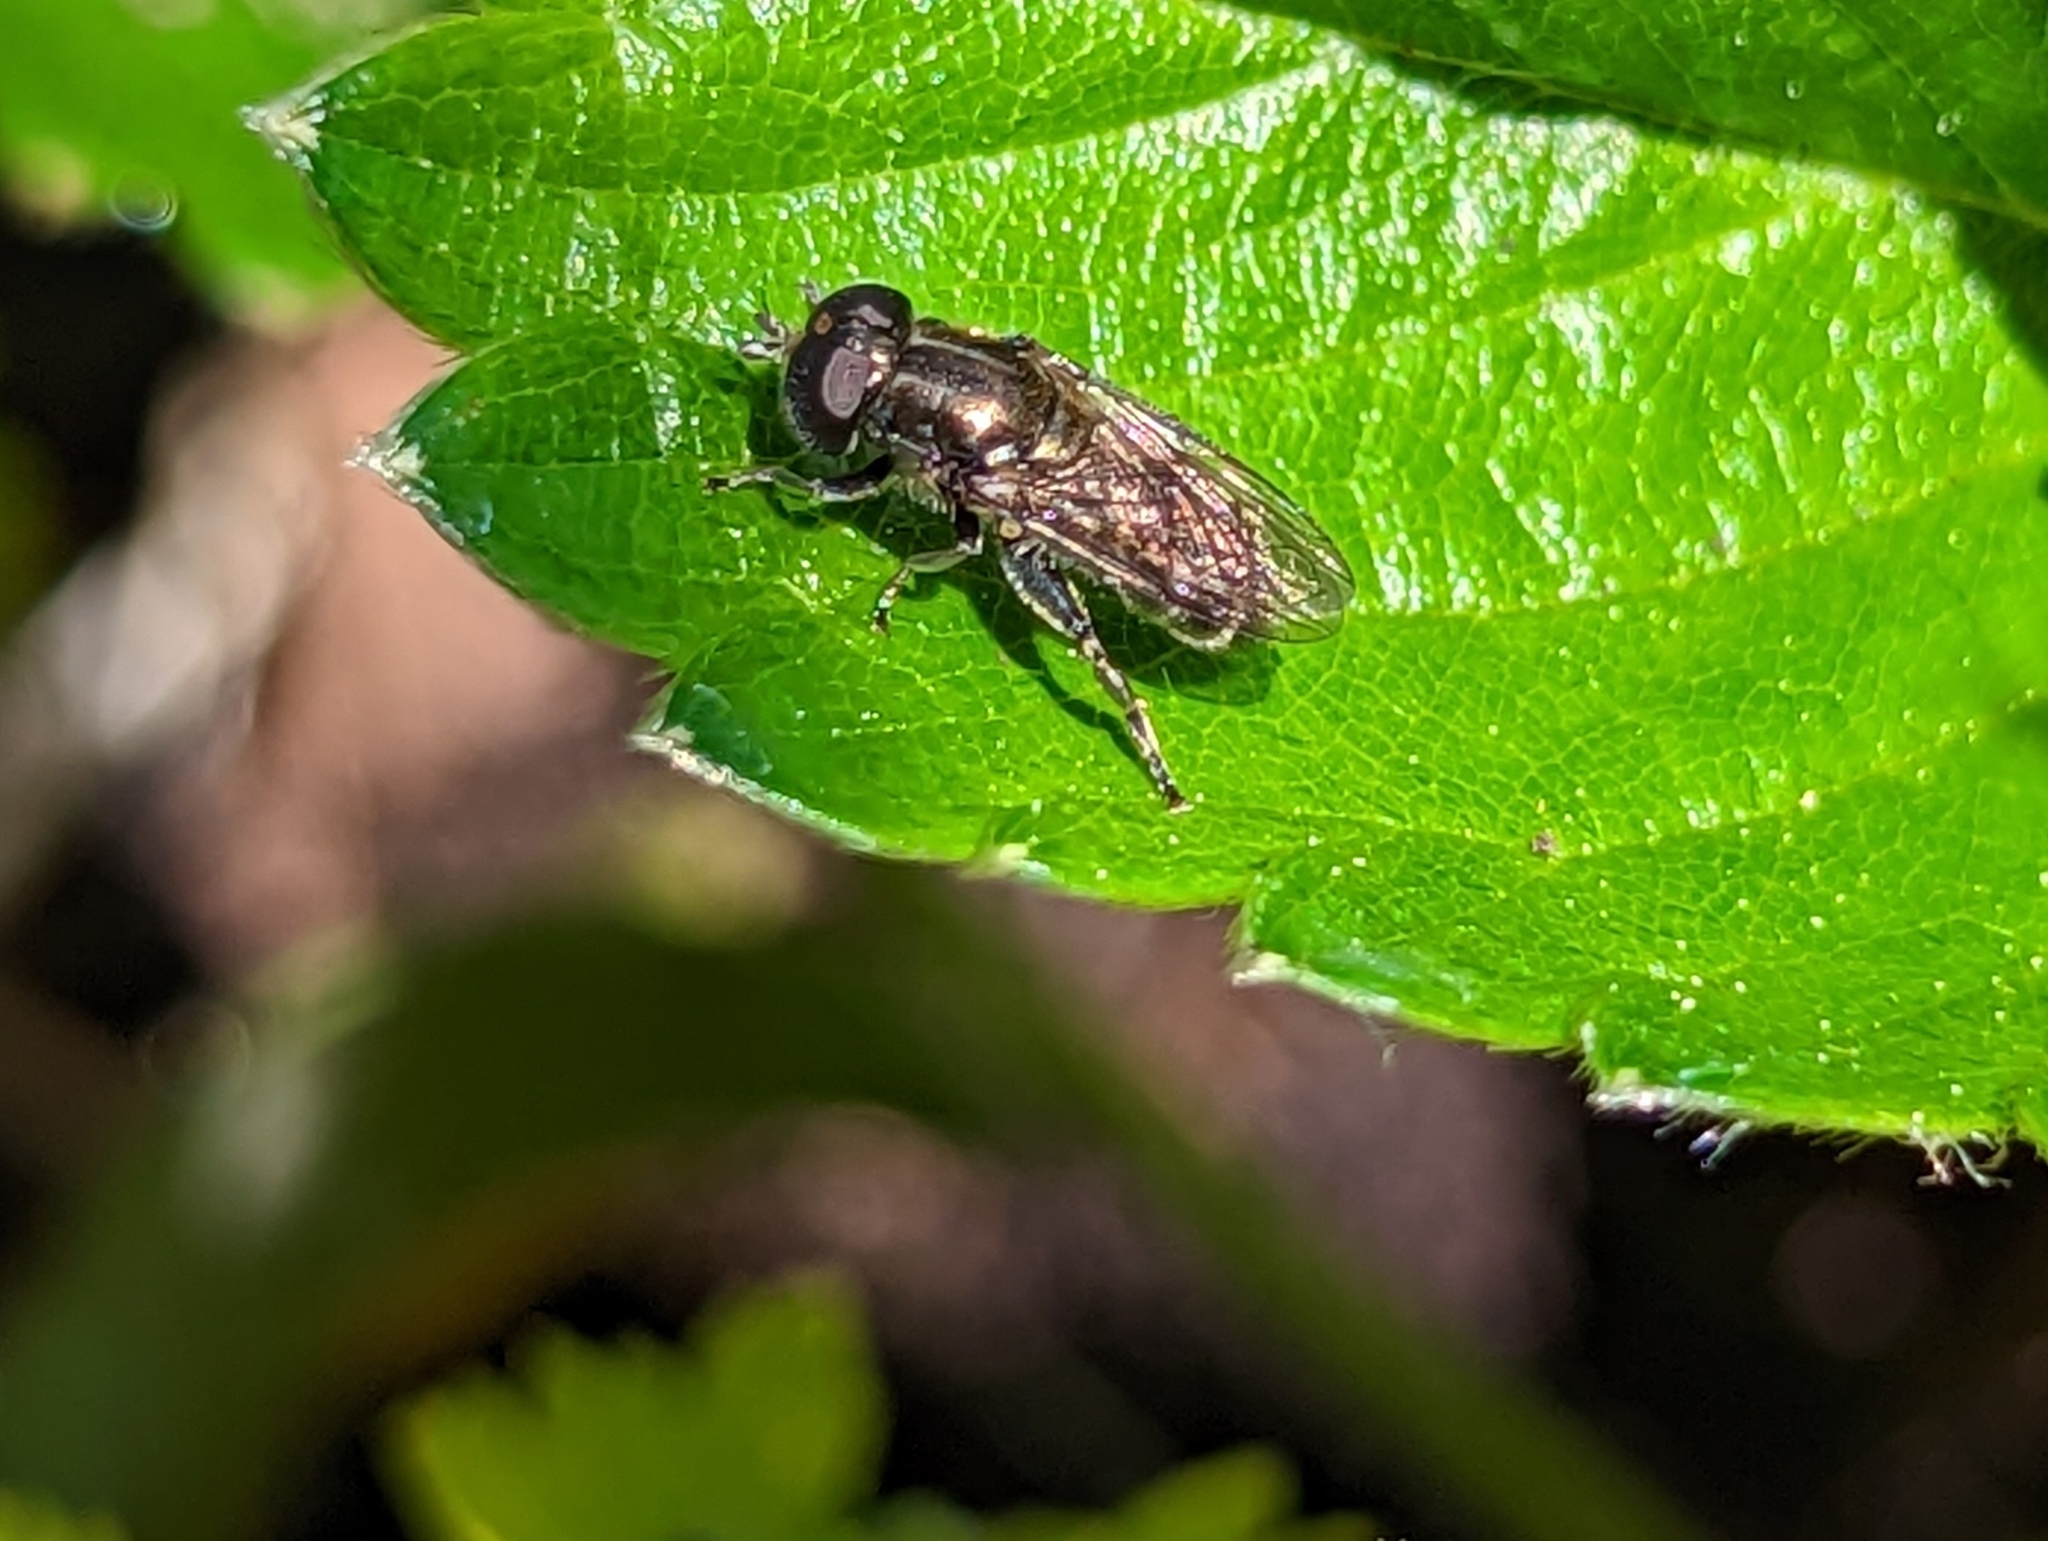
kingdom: Animalia
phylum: Arthropoda
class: Insecta
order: Diptera
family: Syrphidae
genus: Eumerus
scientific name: Eumerus
